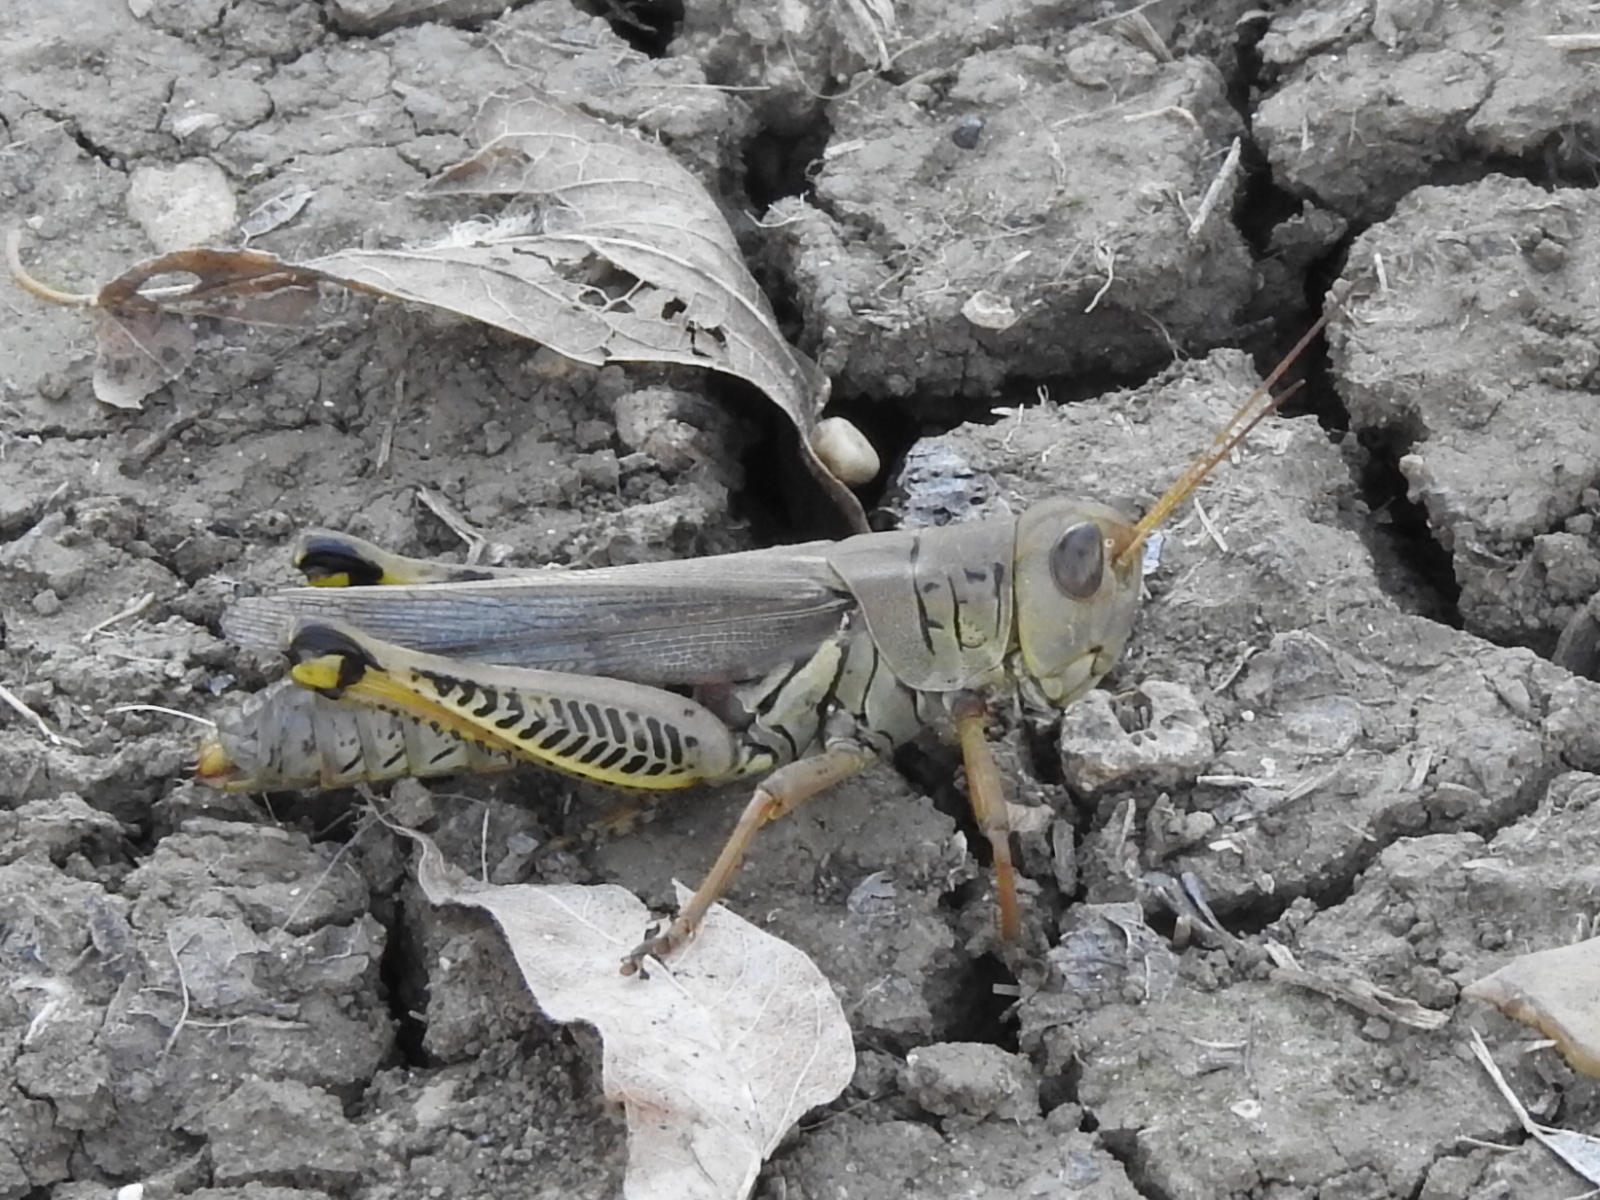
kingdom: Animalia
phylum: Arthropoda
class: Insecta
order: Orthoptera
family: Acrididae
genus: Melanoplus
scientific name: Melanoplus differentialis
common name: Differential grasshopper
